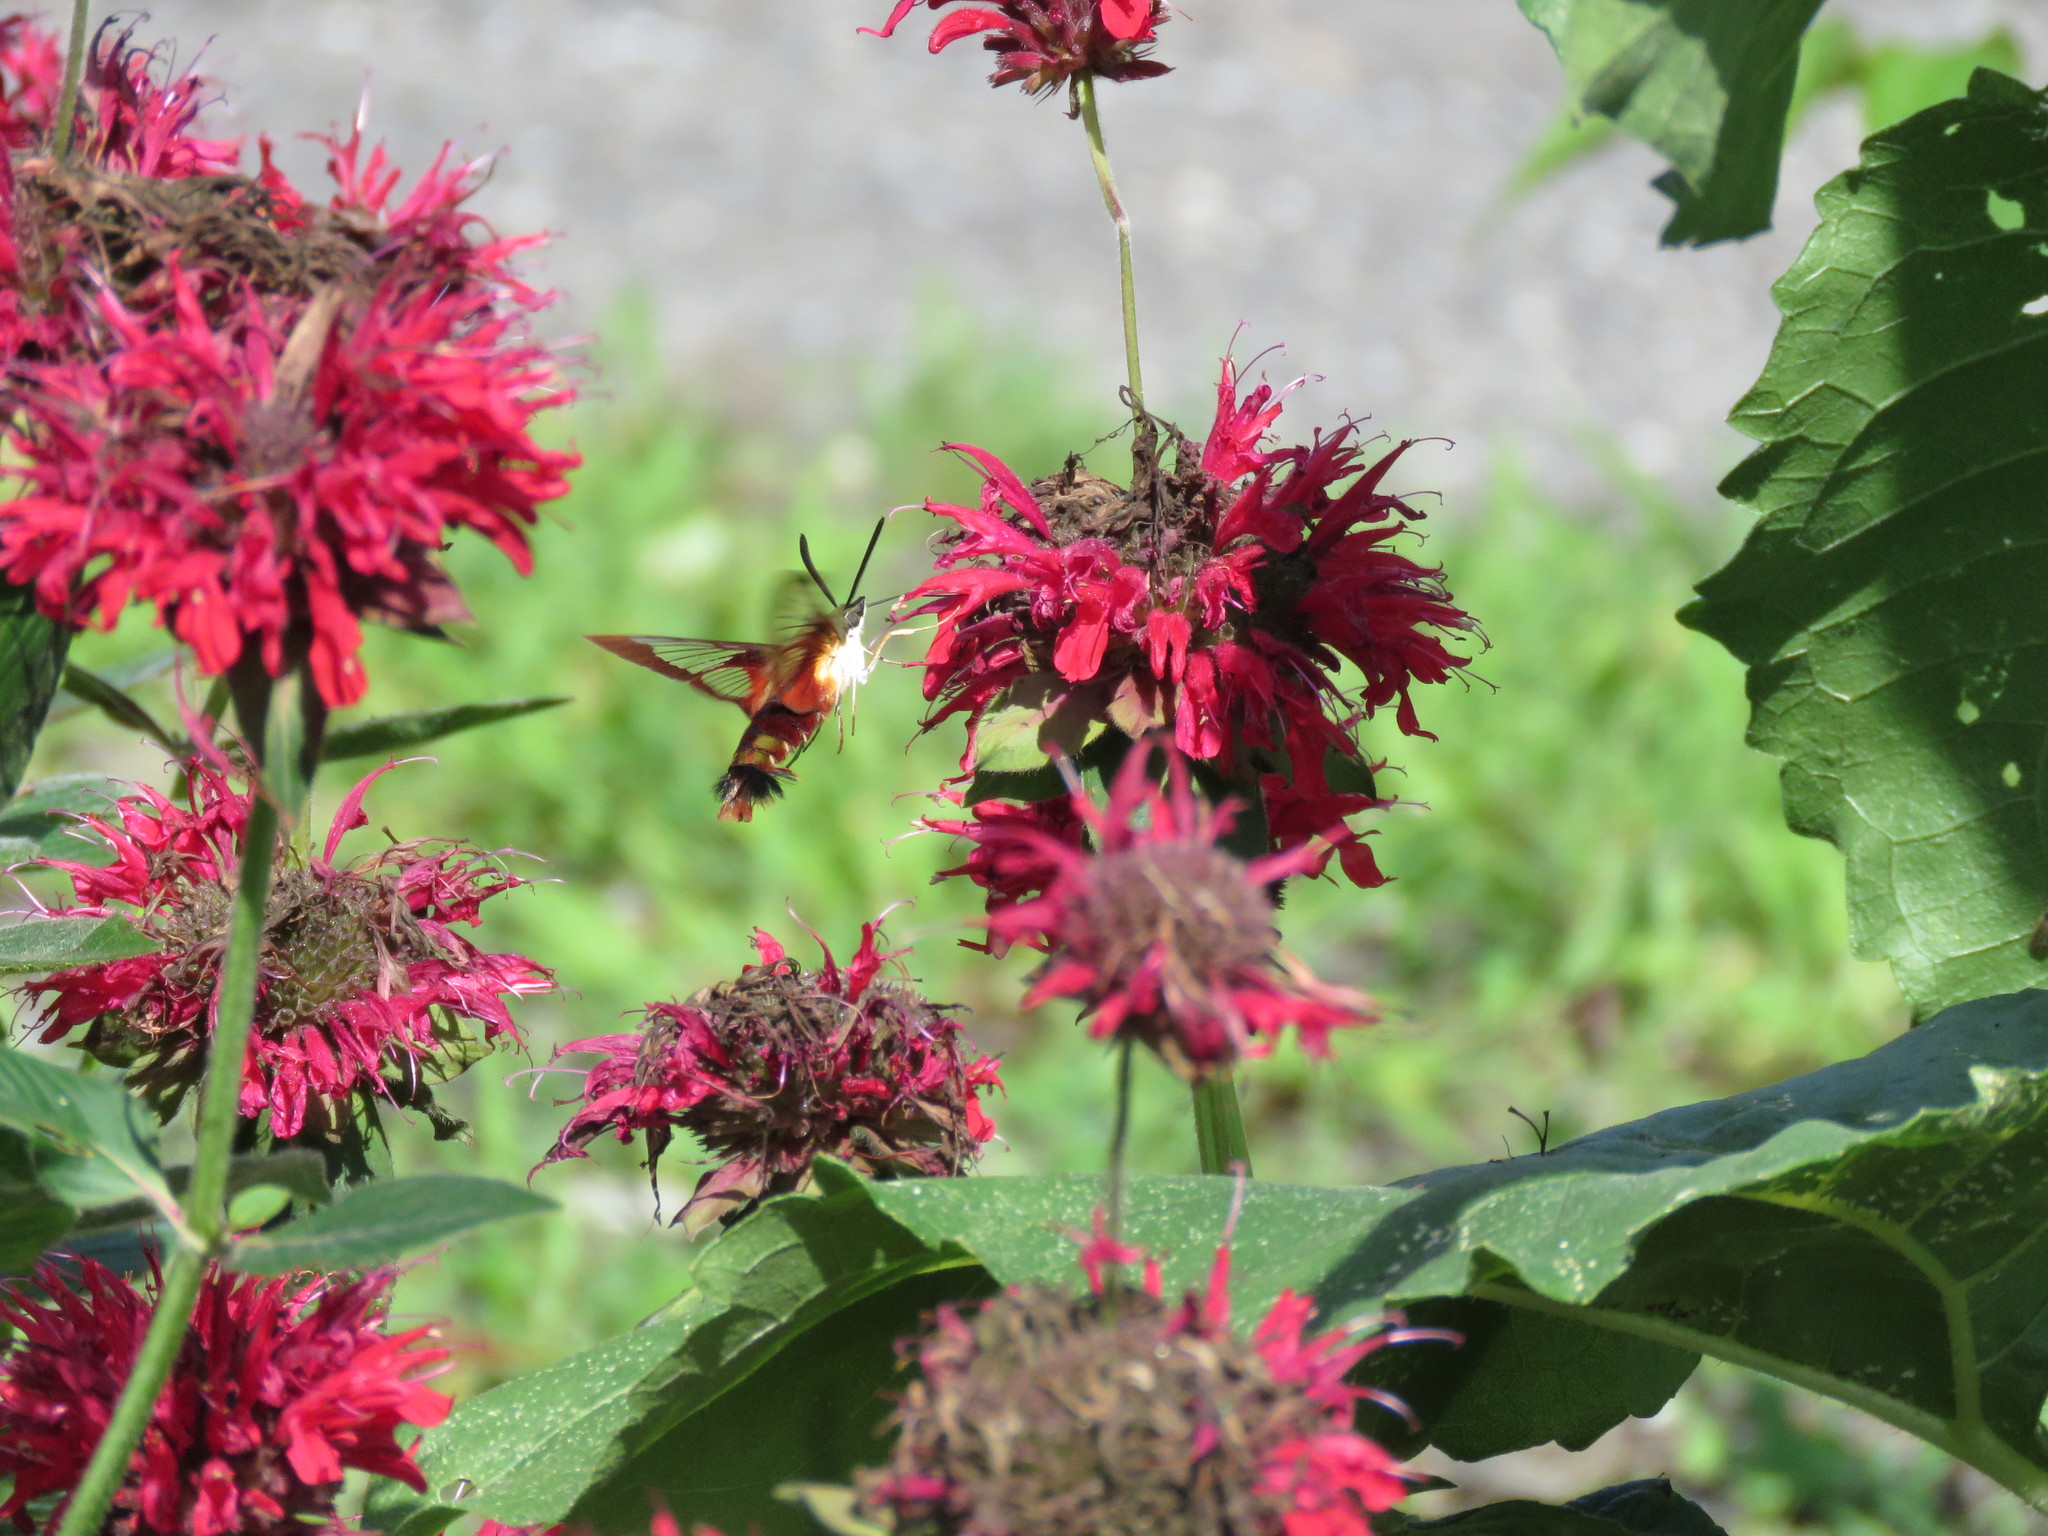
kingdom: Animalia
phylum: Arthropoda
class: Insecta
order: Lepidoptera
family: Sphingidae
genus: Hemaris
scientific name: Hemaris thysbe
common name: Common clear-wing
